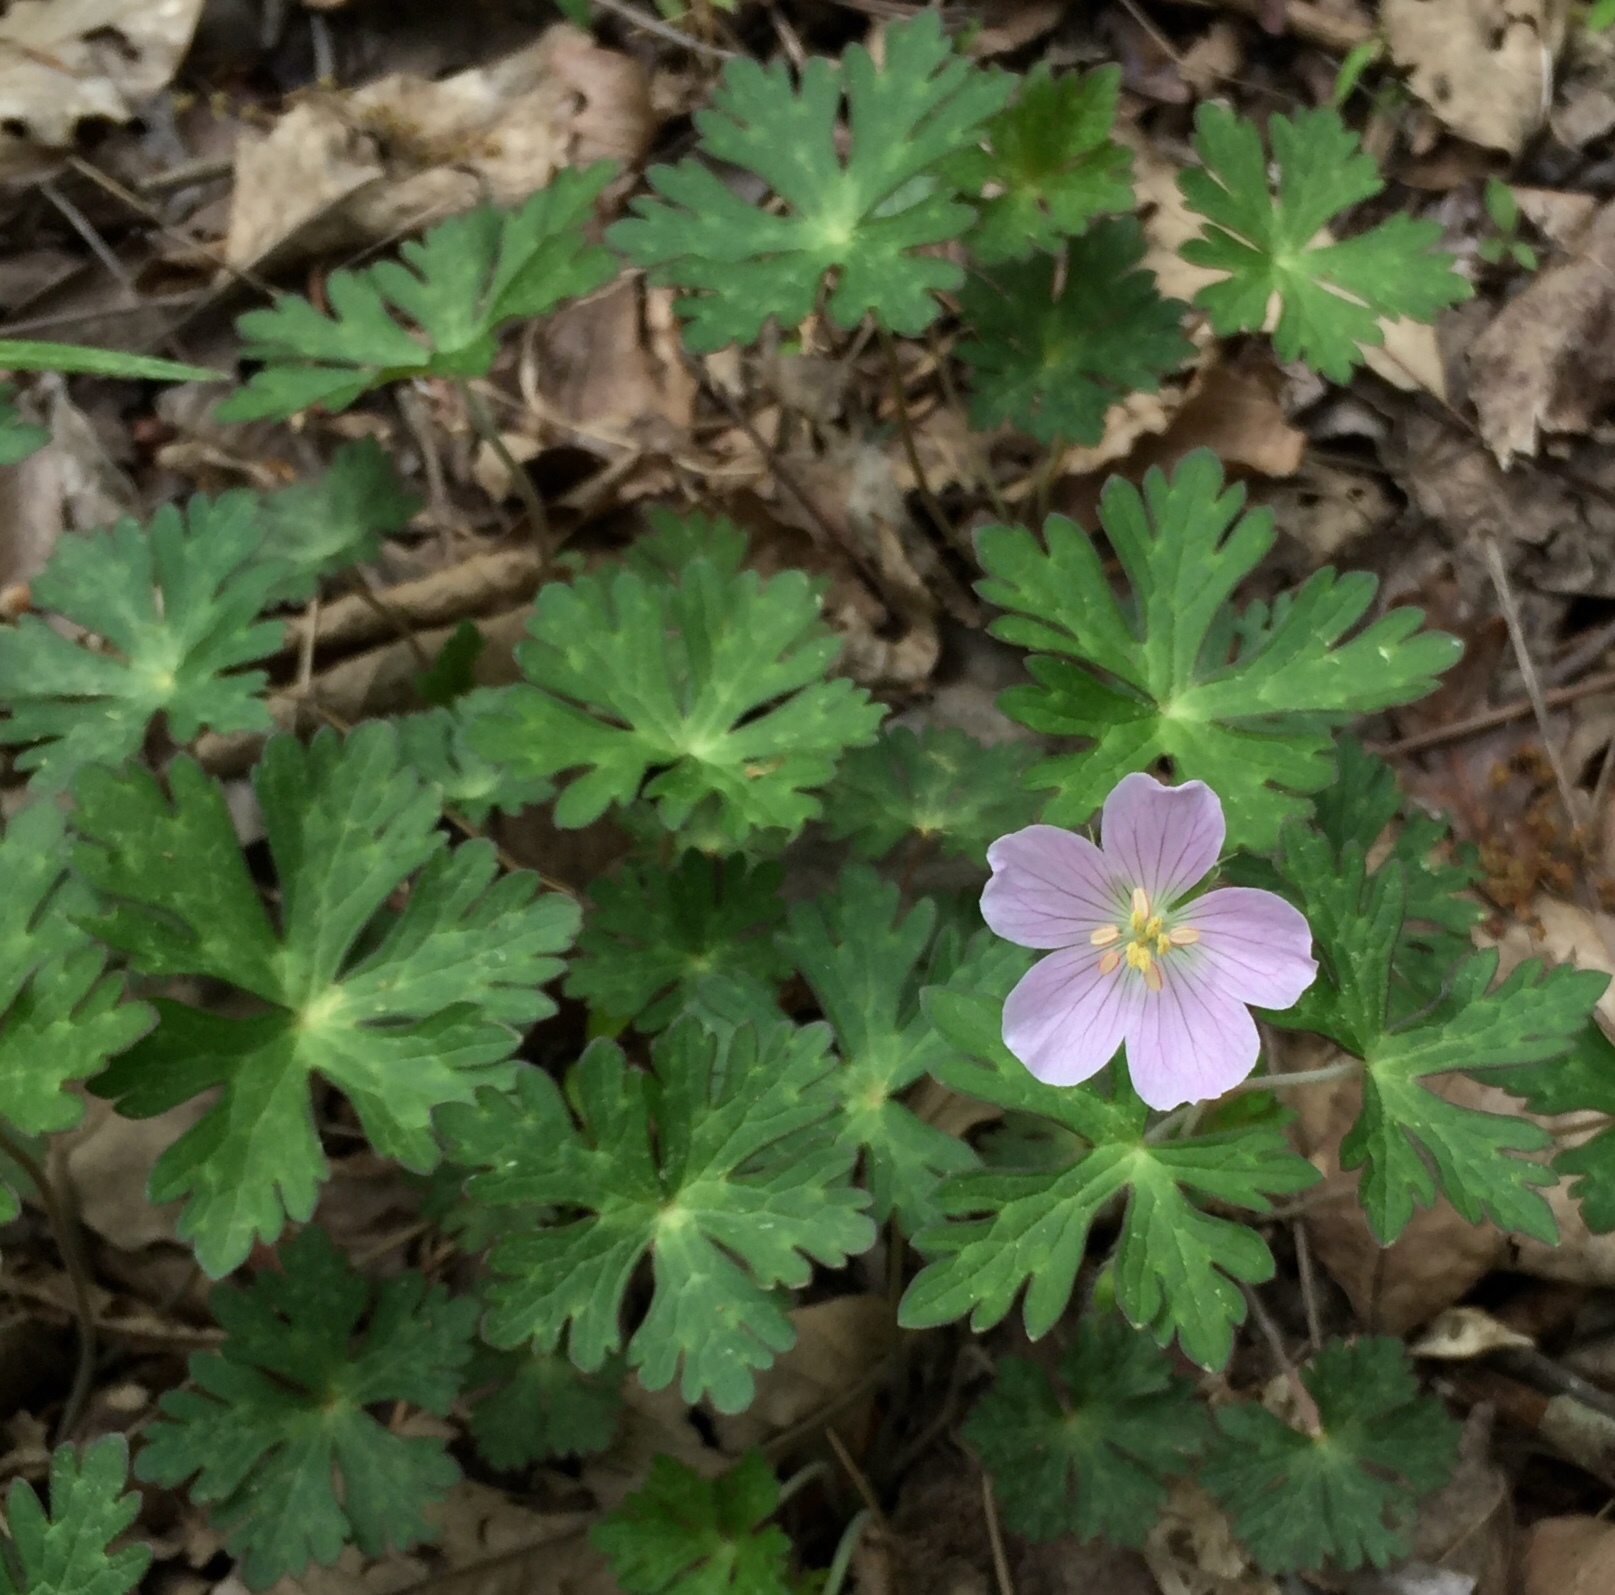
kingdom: Plantae
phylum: Tracheophyta
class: Magnoliopsida
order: Geraniales
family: Geraniaceae
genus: Geranium
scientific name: Geranium maculatum
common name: Spotted geranium
